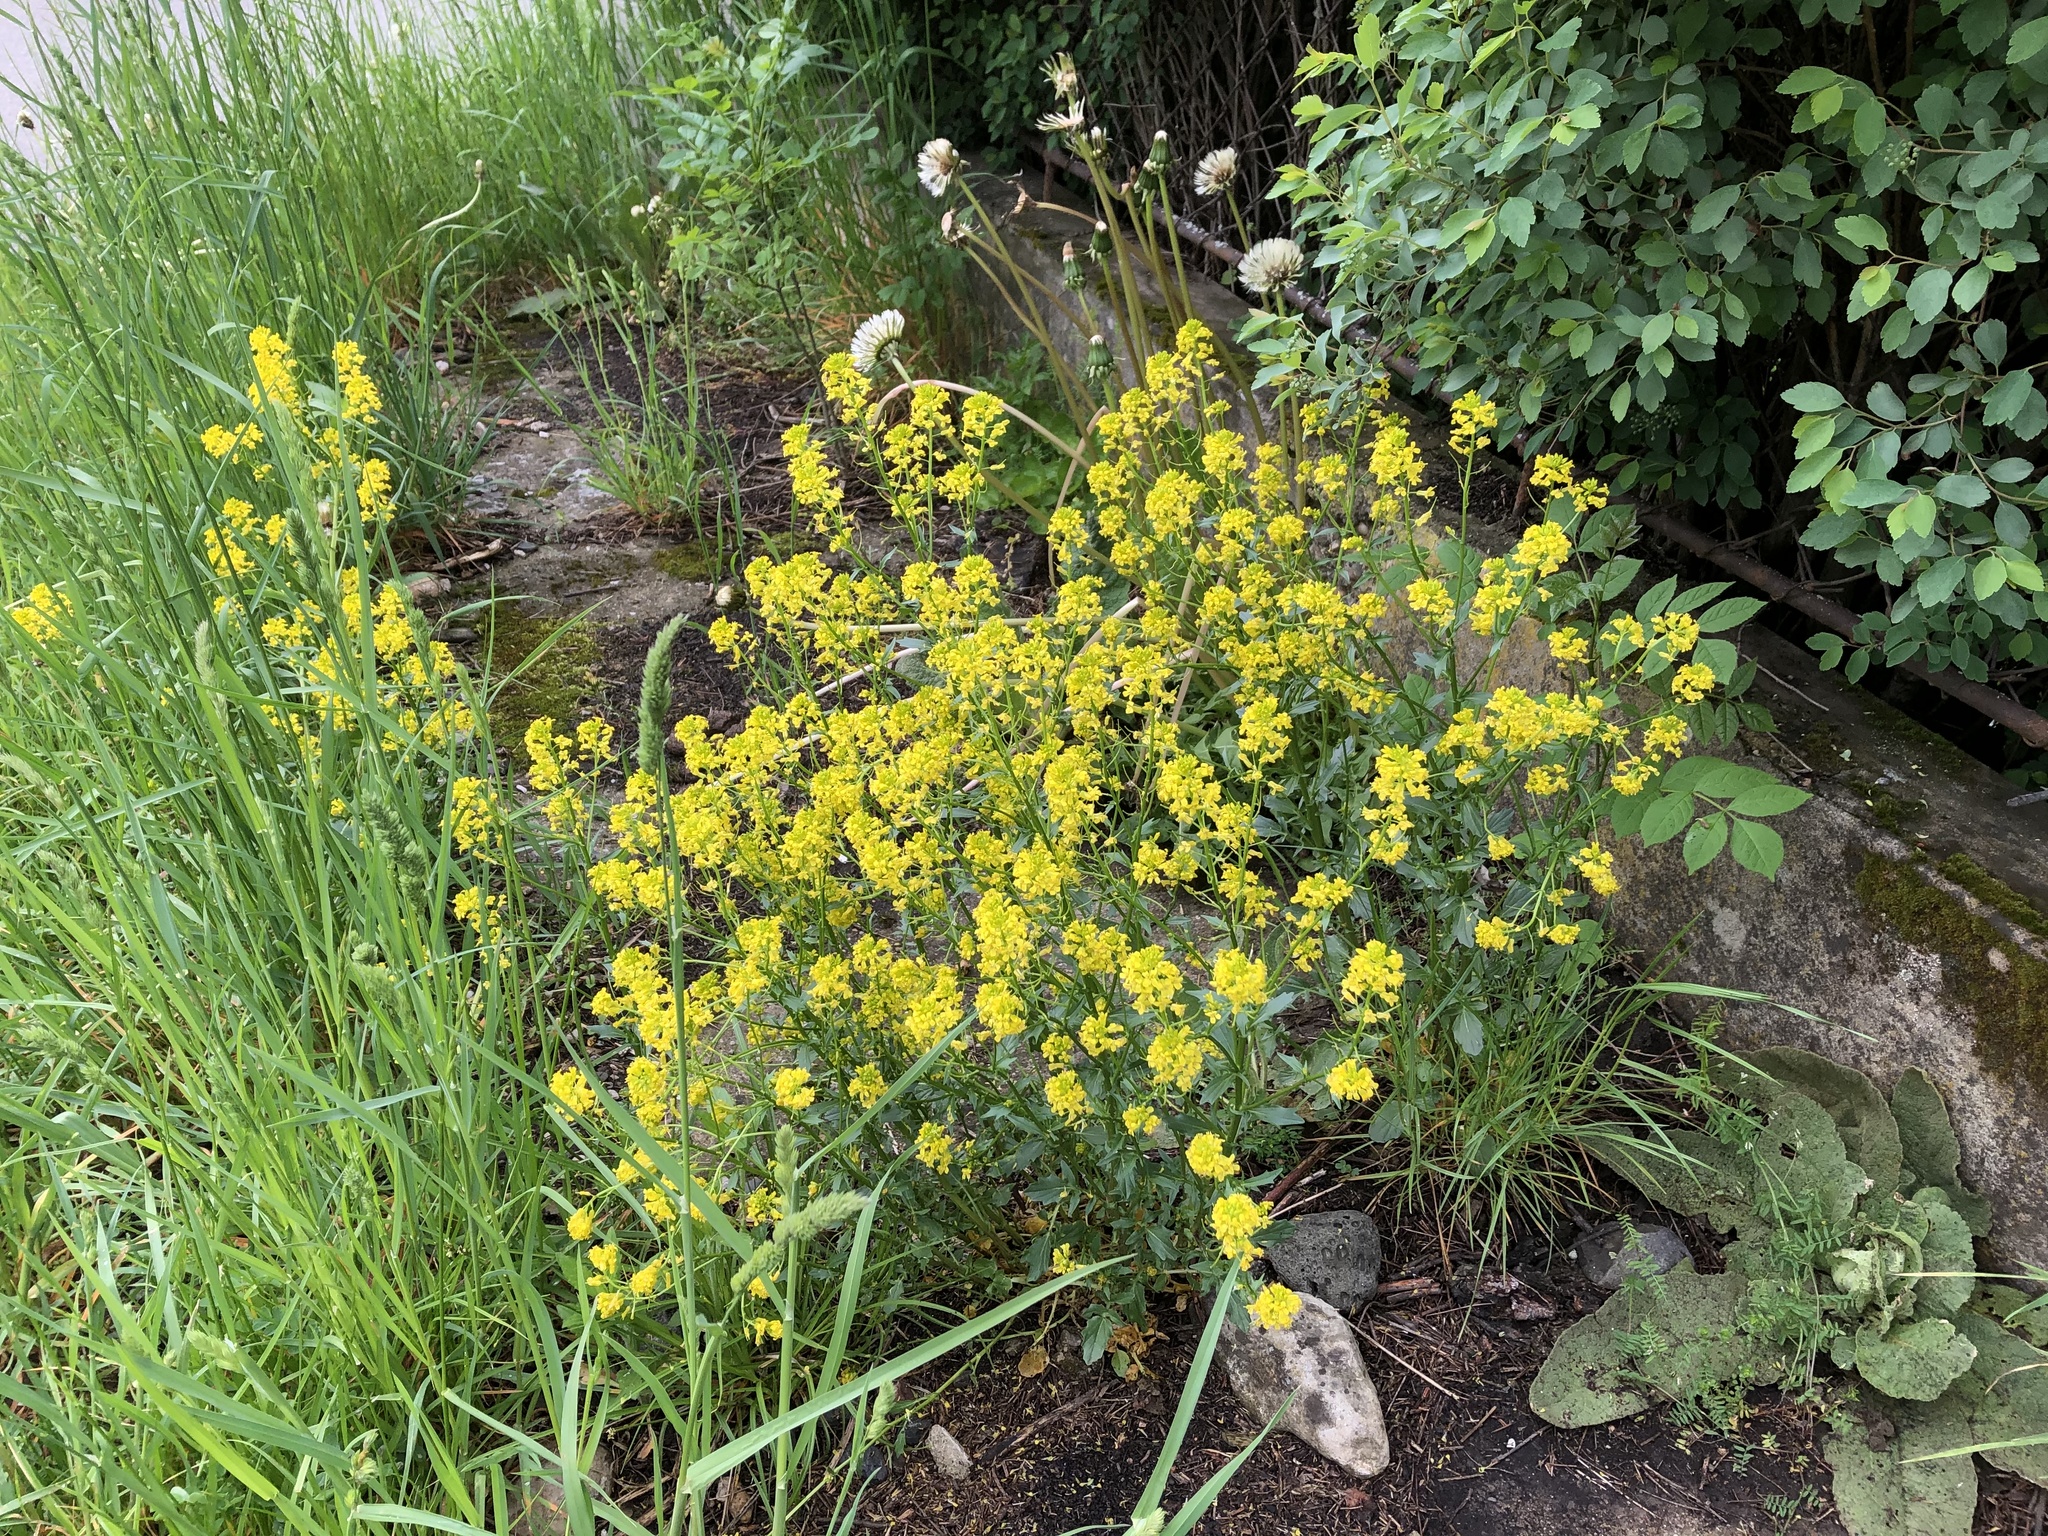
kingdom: Plantae
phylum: Tracheophyta
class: Magnoliopsida
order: Brassicales
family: Brassicaceae
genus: Barbarea
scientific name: Barbarea vulgaris
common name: Cressy-greens
